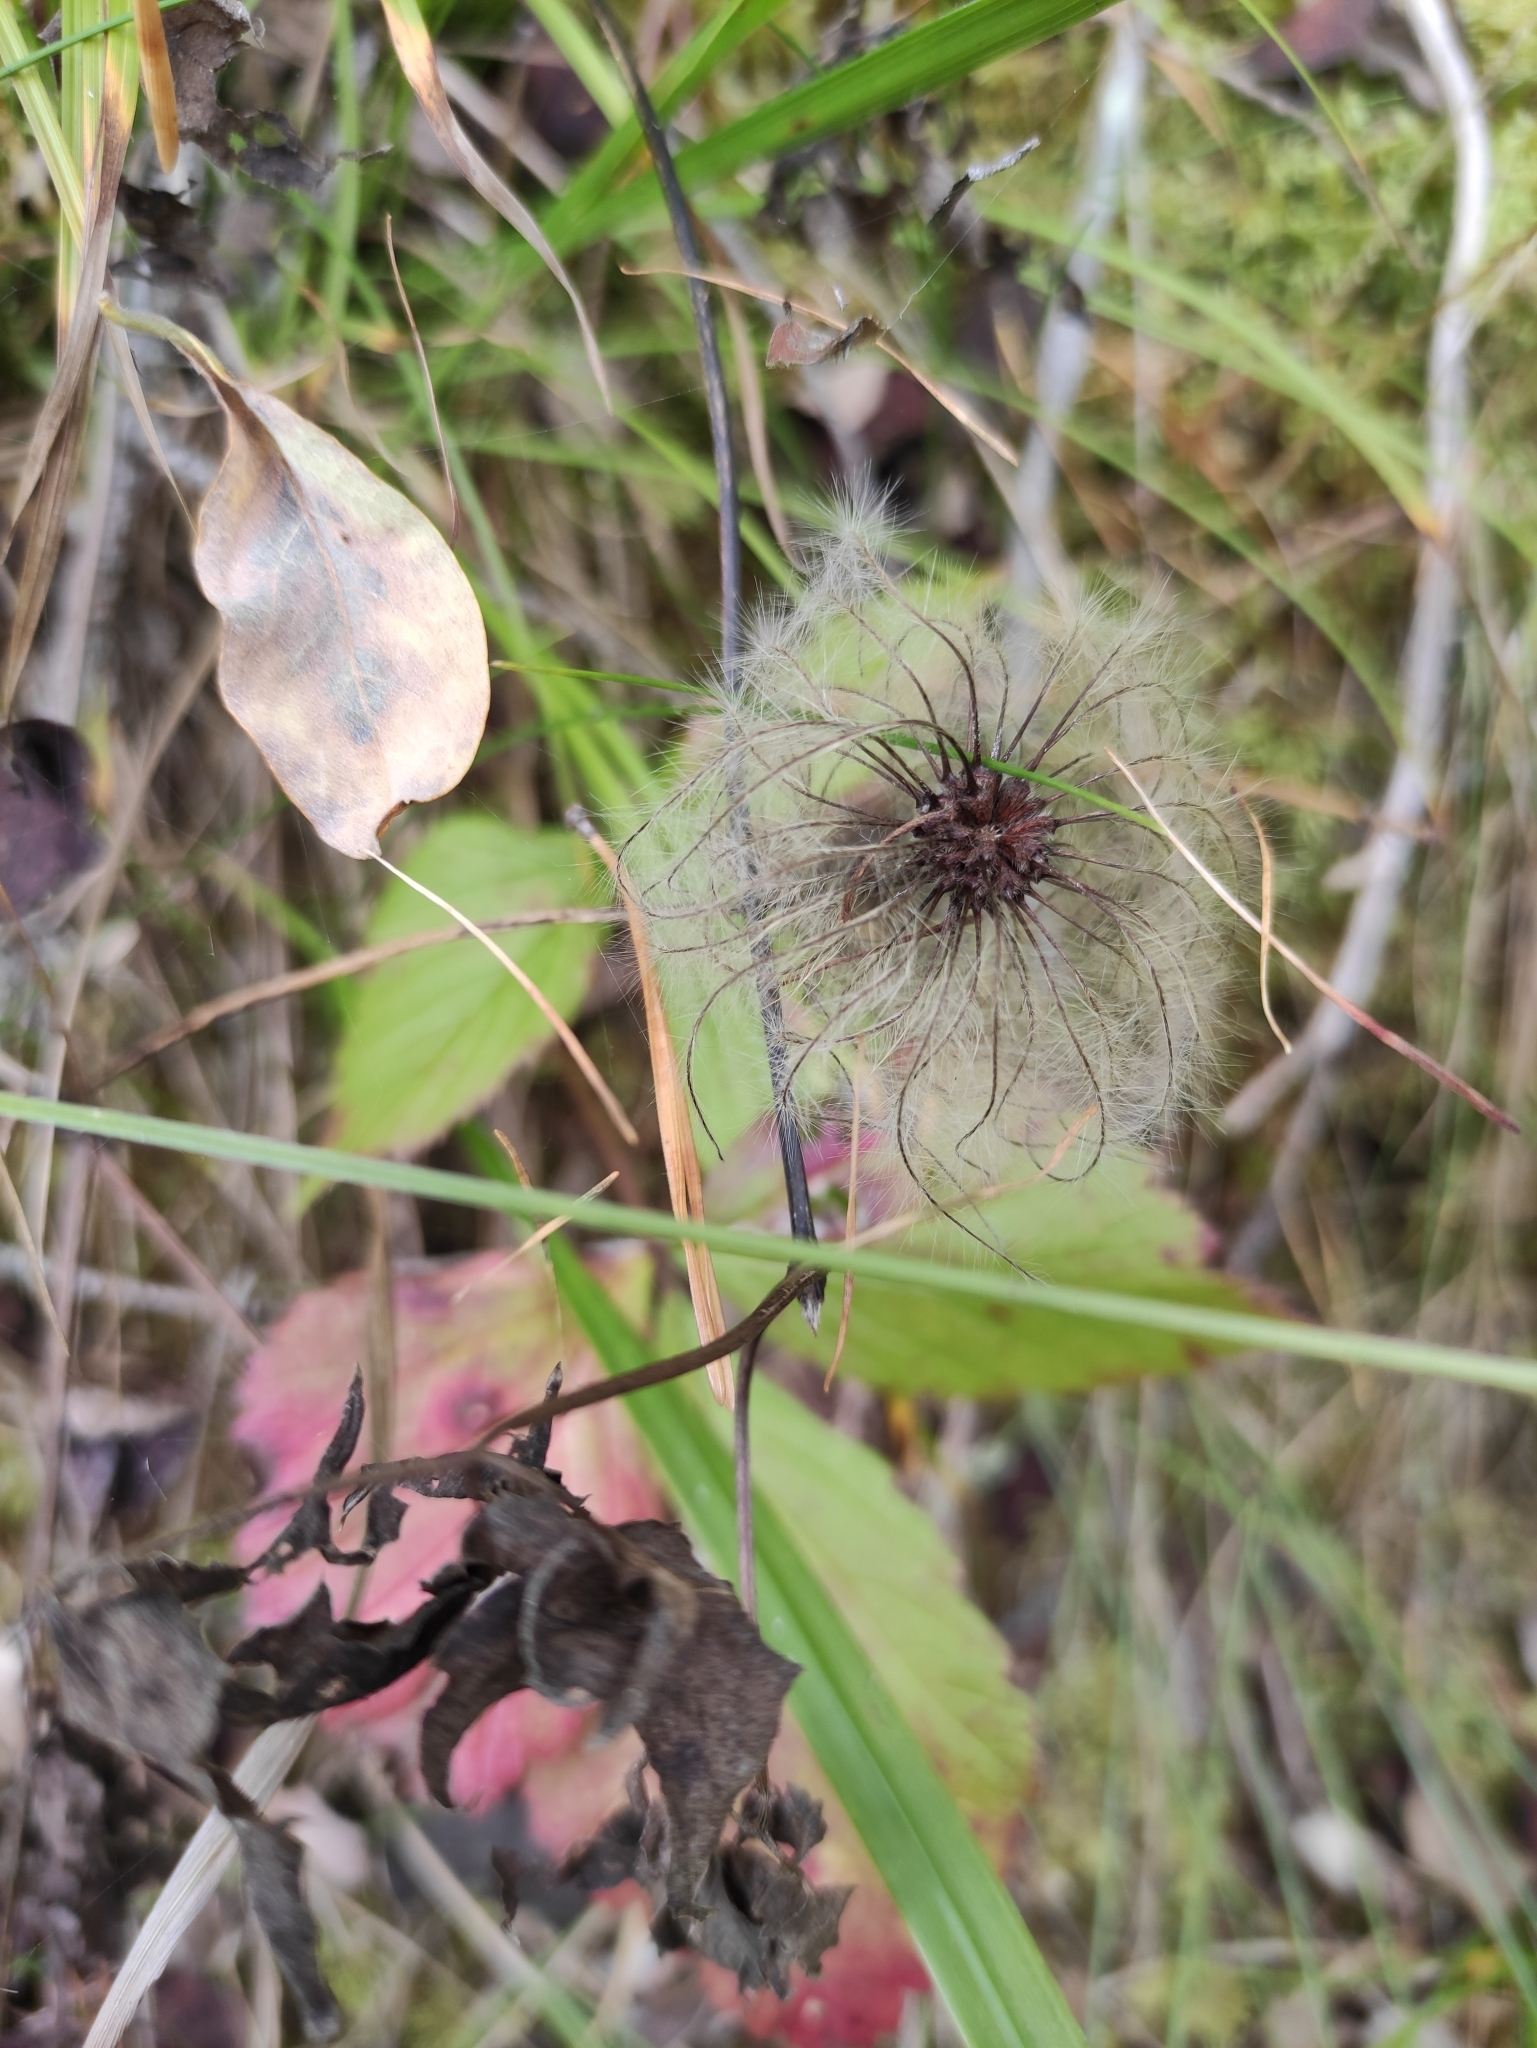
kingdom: Plantae
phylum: Tracheophyta
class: Magnoliopsida
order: Ranunculales
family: Ranunculaceae
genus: Clematis
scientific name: Clematis sibirica
